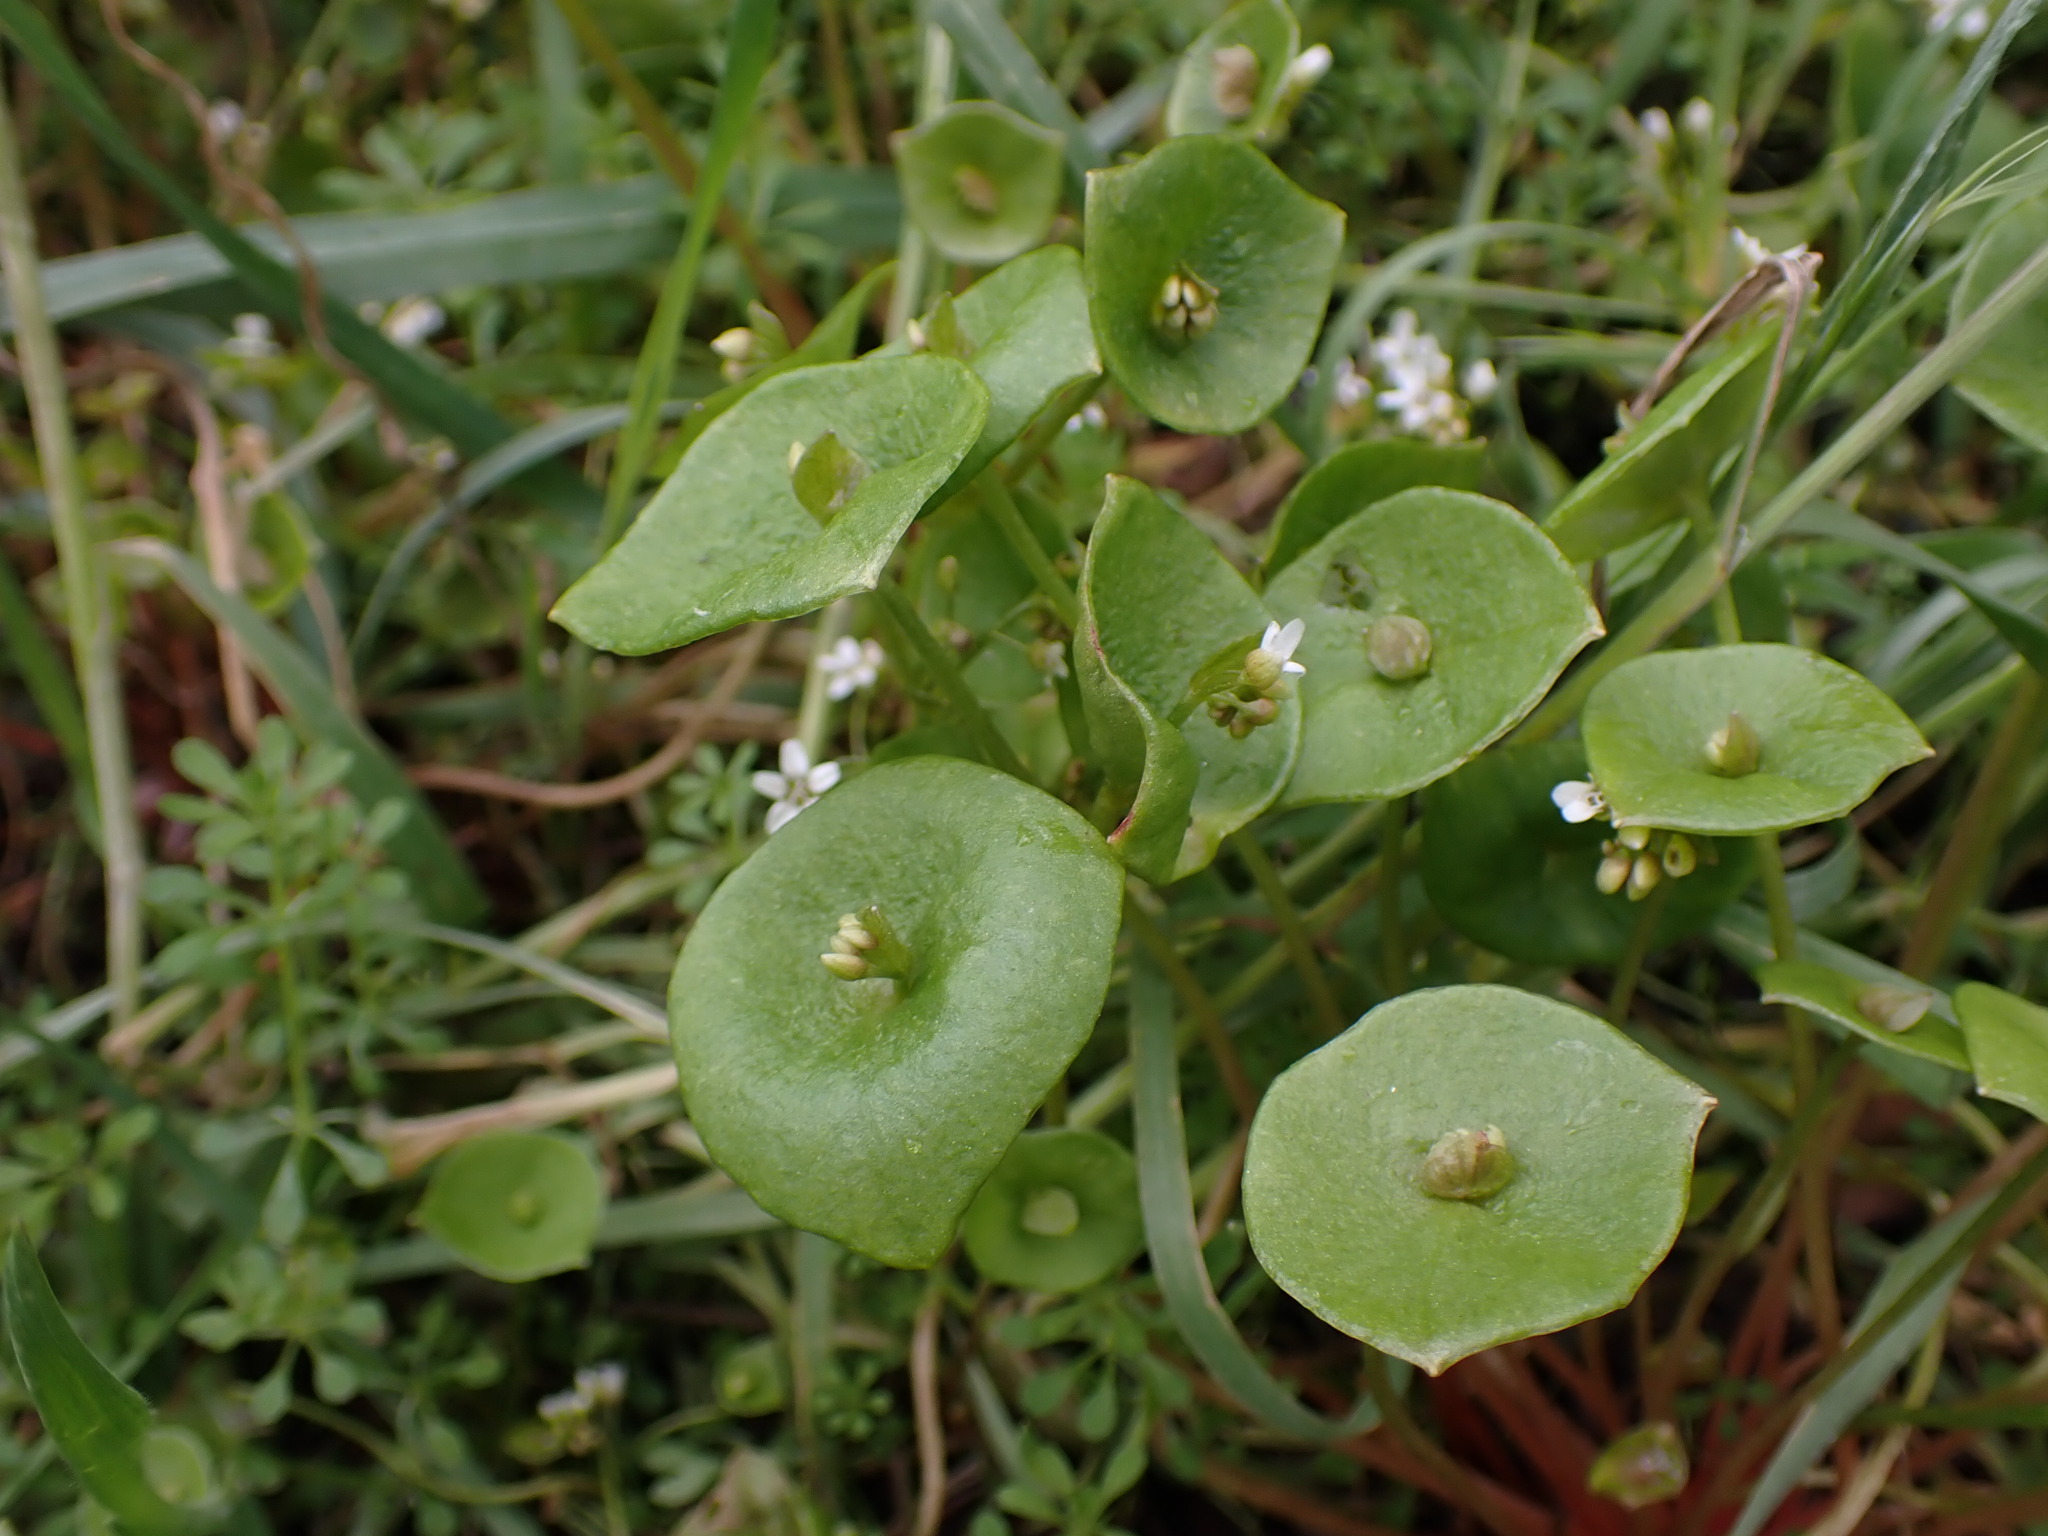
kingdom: Plantae
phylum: Tracheophyta
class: Magnoliopsida
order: Caryophyllales
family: Montiaceae
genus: Claytonia
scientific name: Claytonia perfoliata
